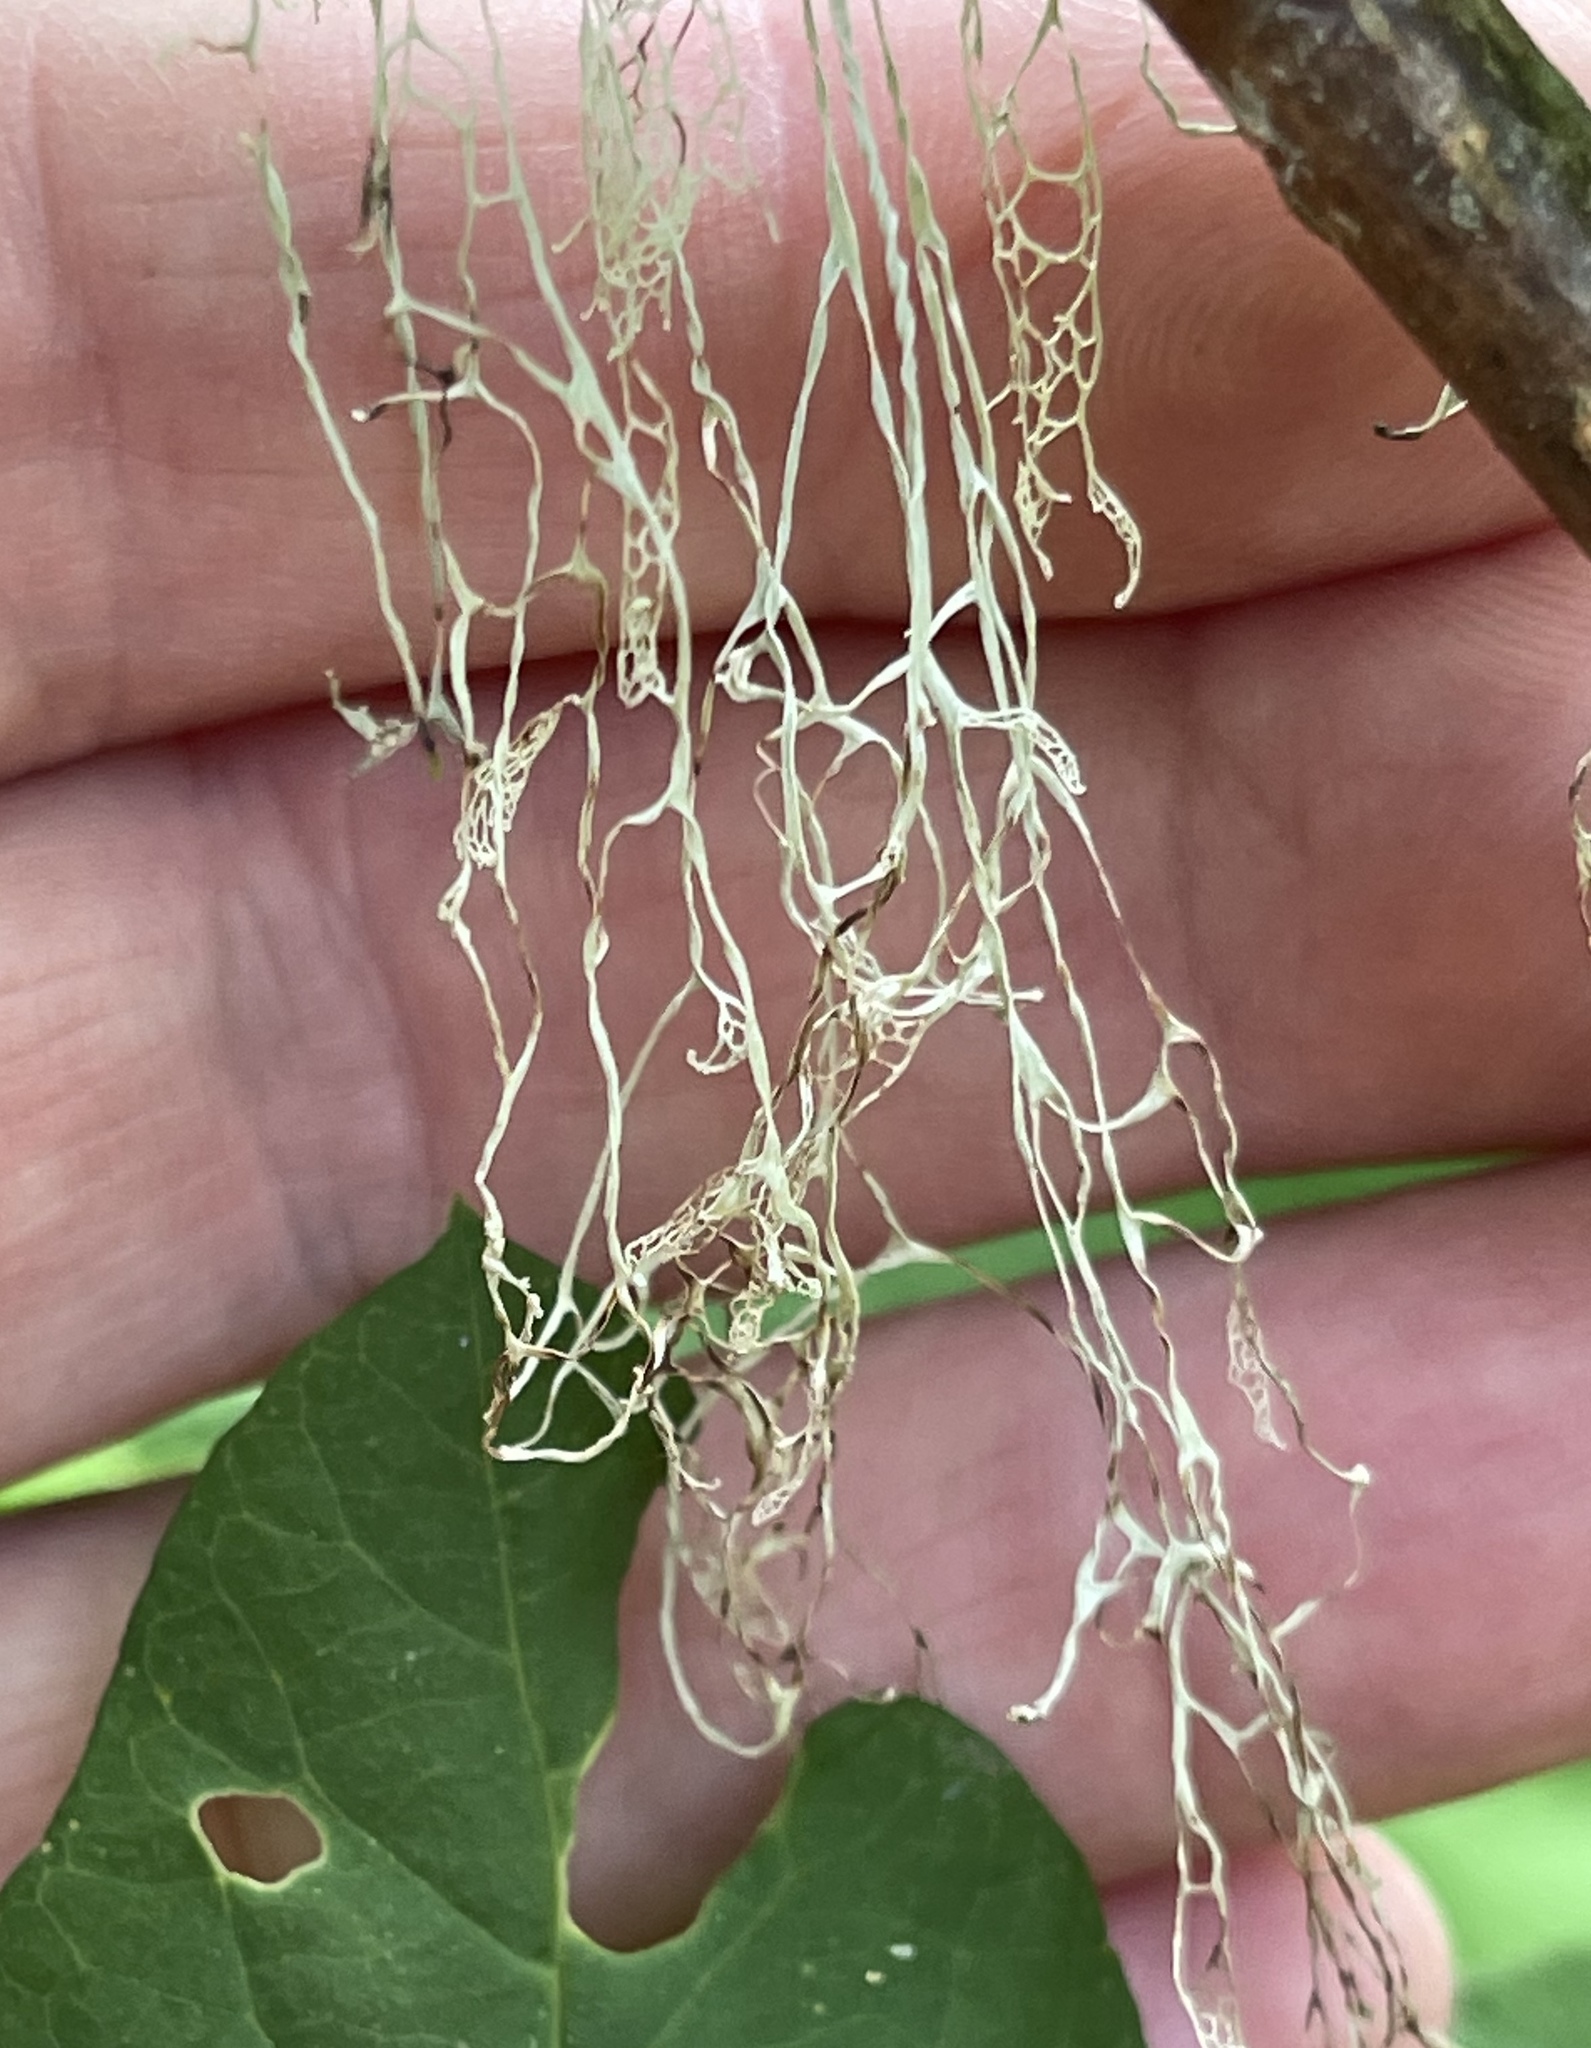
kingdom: Fungi
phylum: Ascomycota
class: Lecanoromycetes
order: Lecanorales
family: Ramalinaceae
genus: Ramalina
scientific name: Ramalina menziesii
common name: Lace lichen
